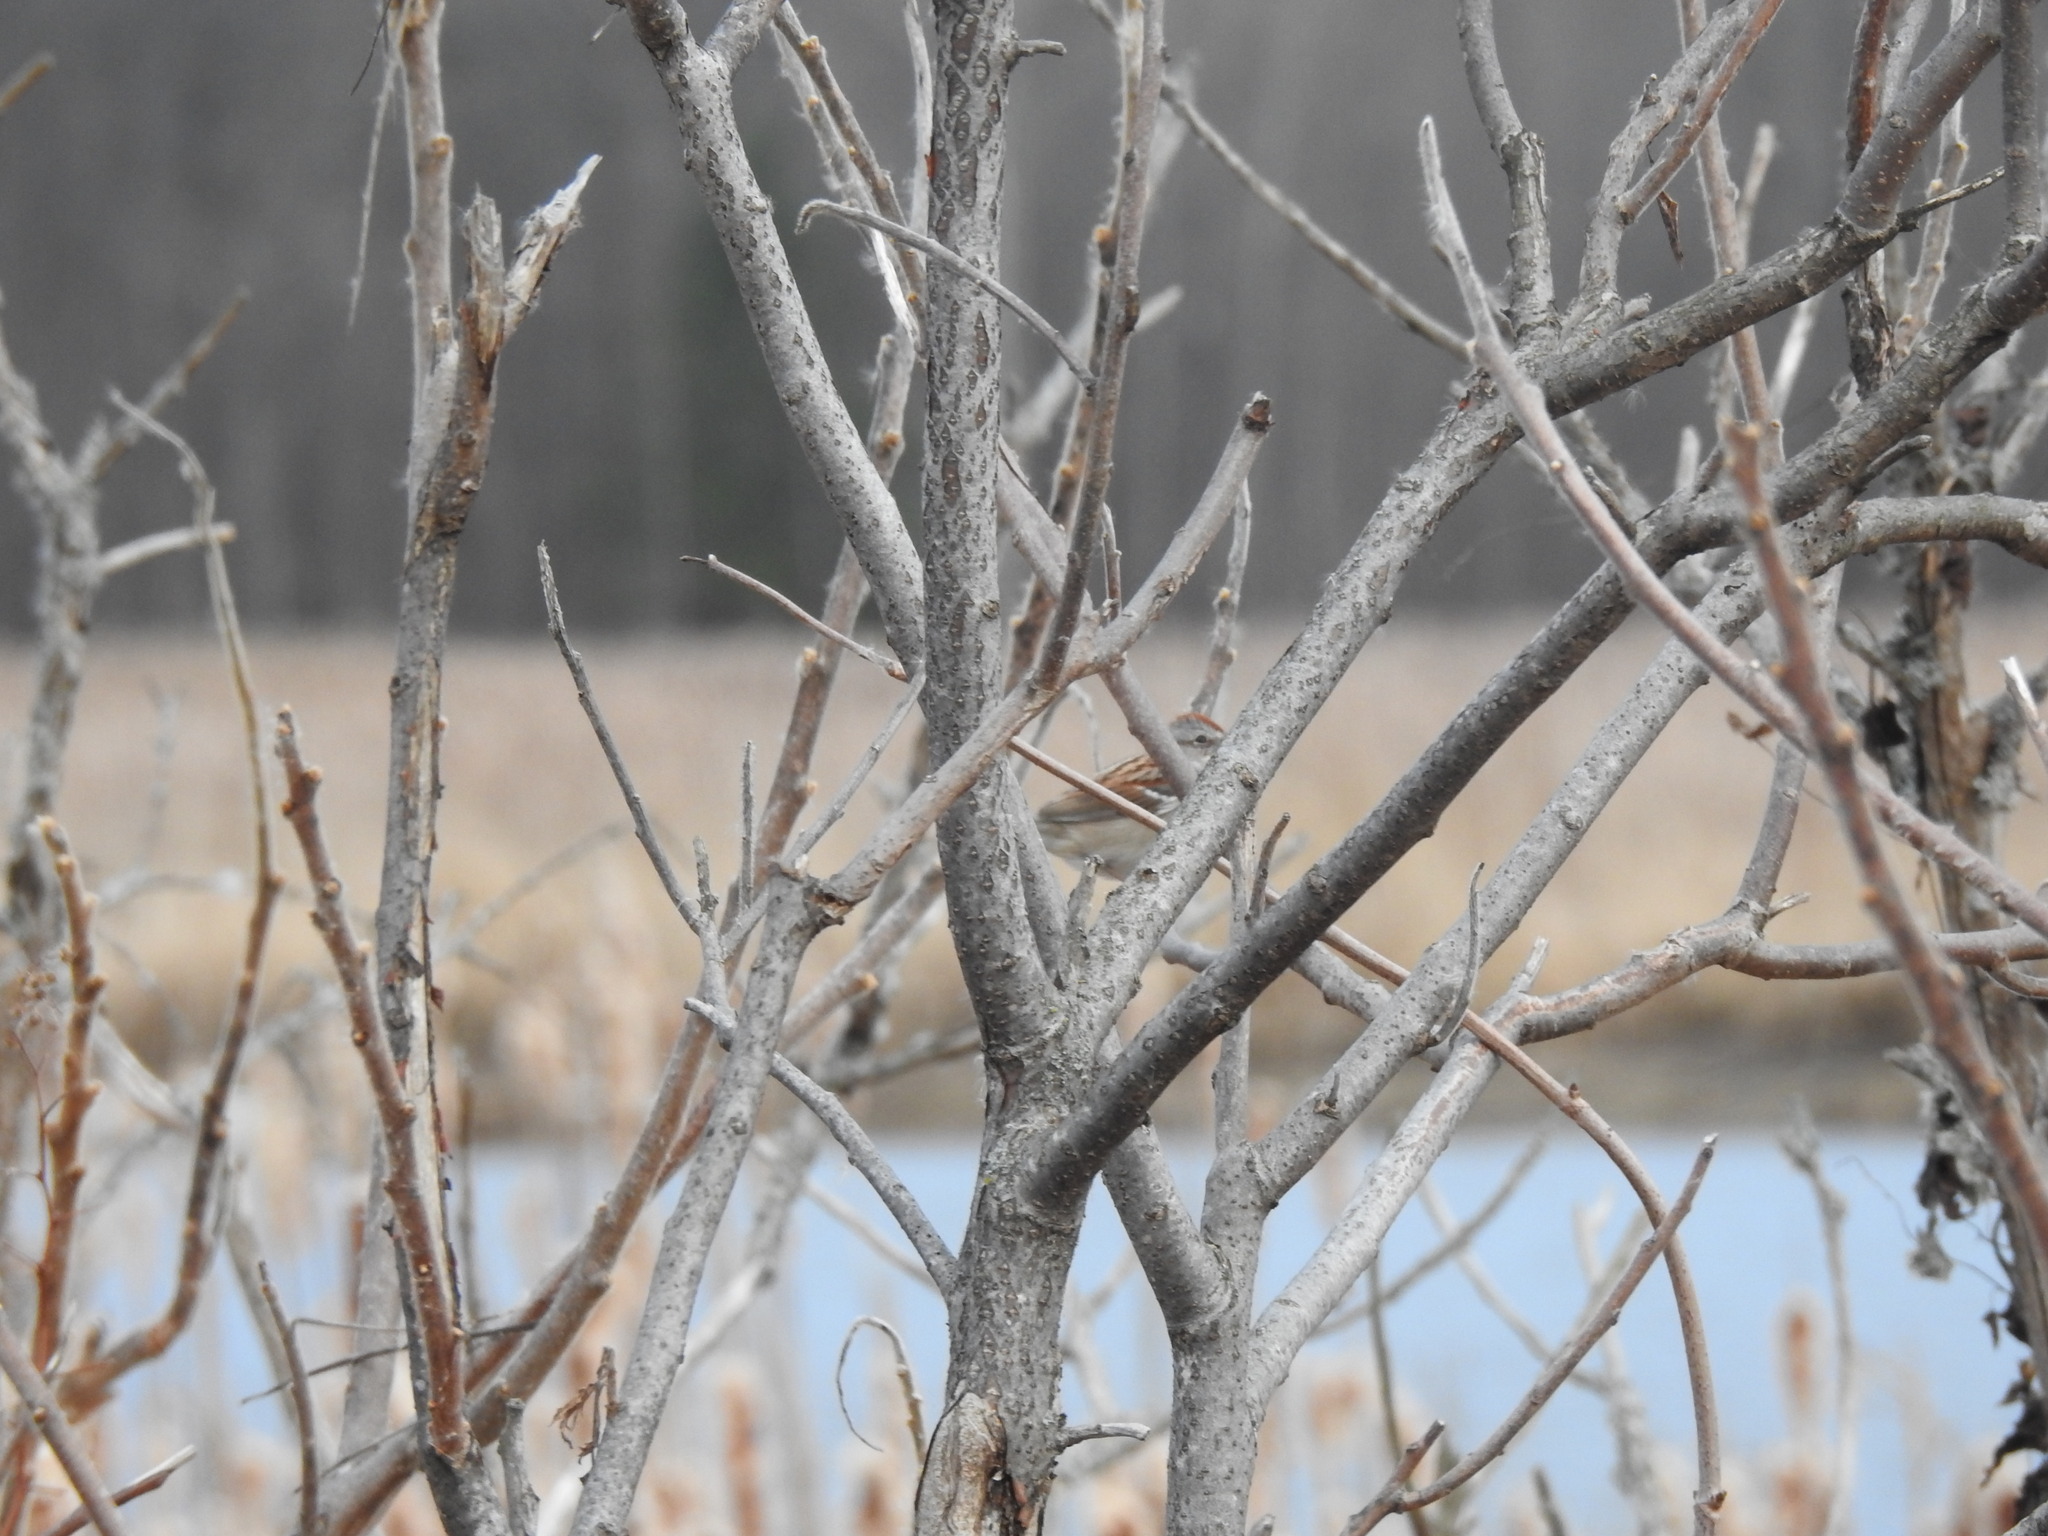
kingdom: Animalia
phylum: Chordata
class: Aves
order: Passeriformes
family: Passerellidae
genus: Spizelloides
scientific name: Spizelloides arborea
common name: American tree sparrow
